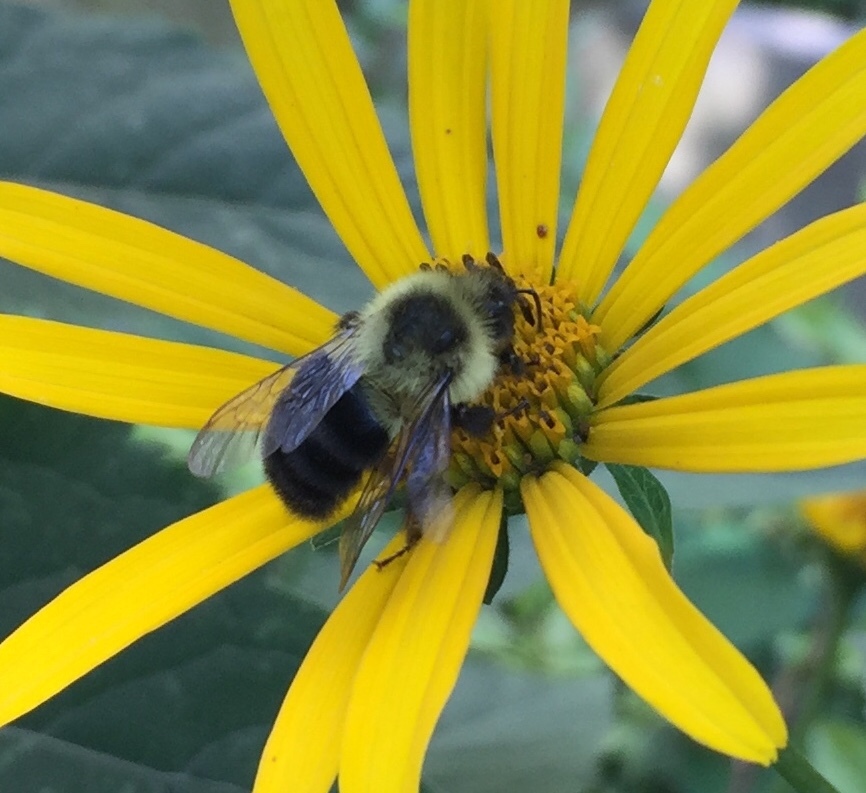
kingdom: Animalia
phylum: Arthropoda
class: Insecta
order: Hymenoptera
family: Apidae
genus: Bombus
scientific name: Bombus impatiens
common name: Common eastern bumble bee
